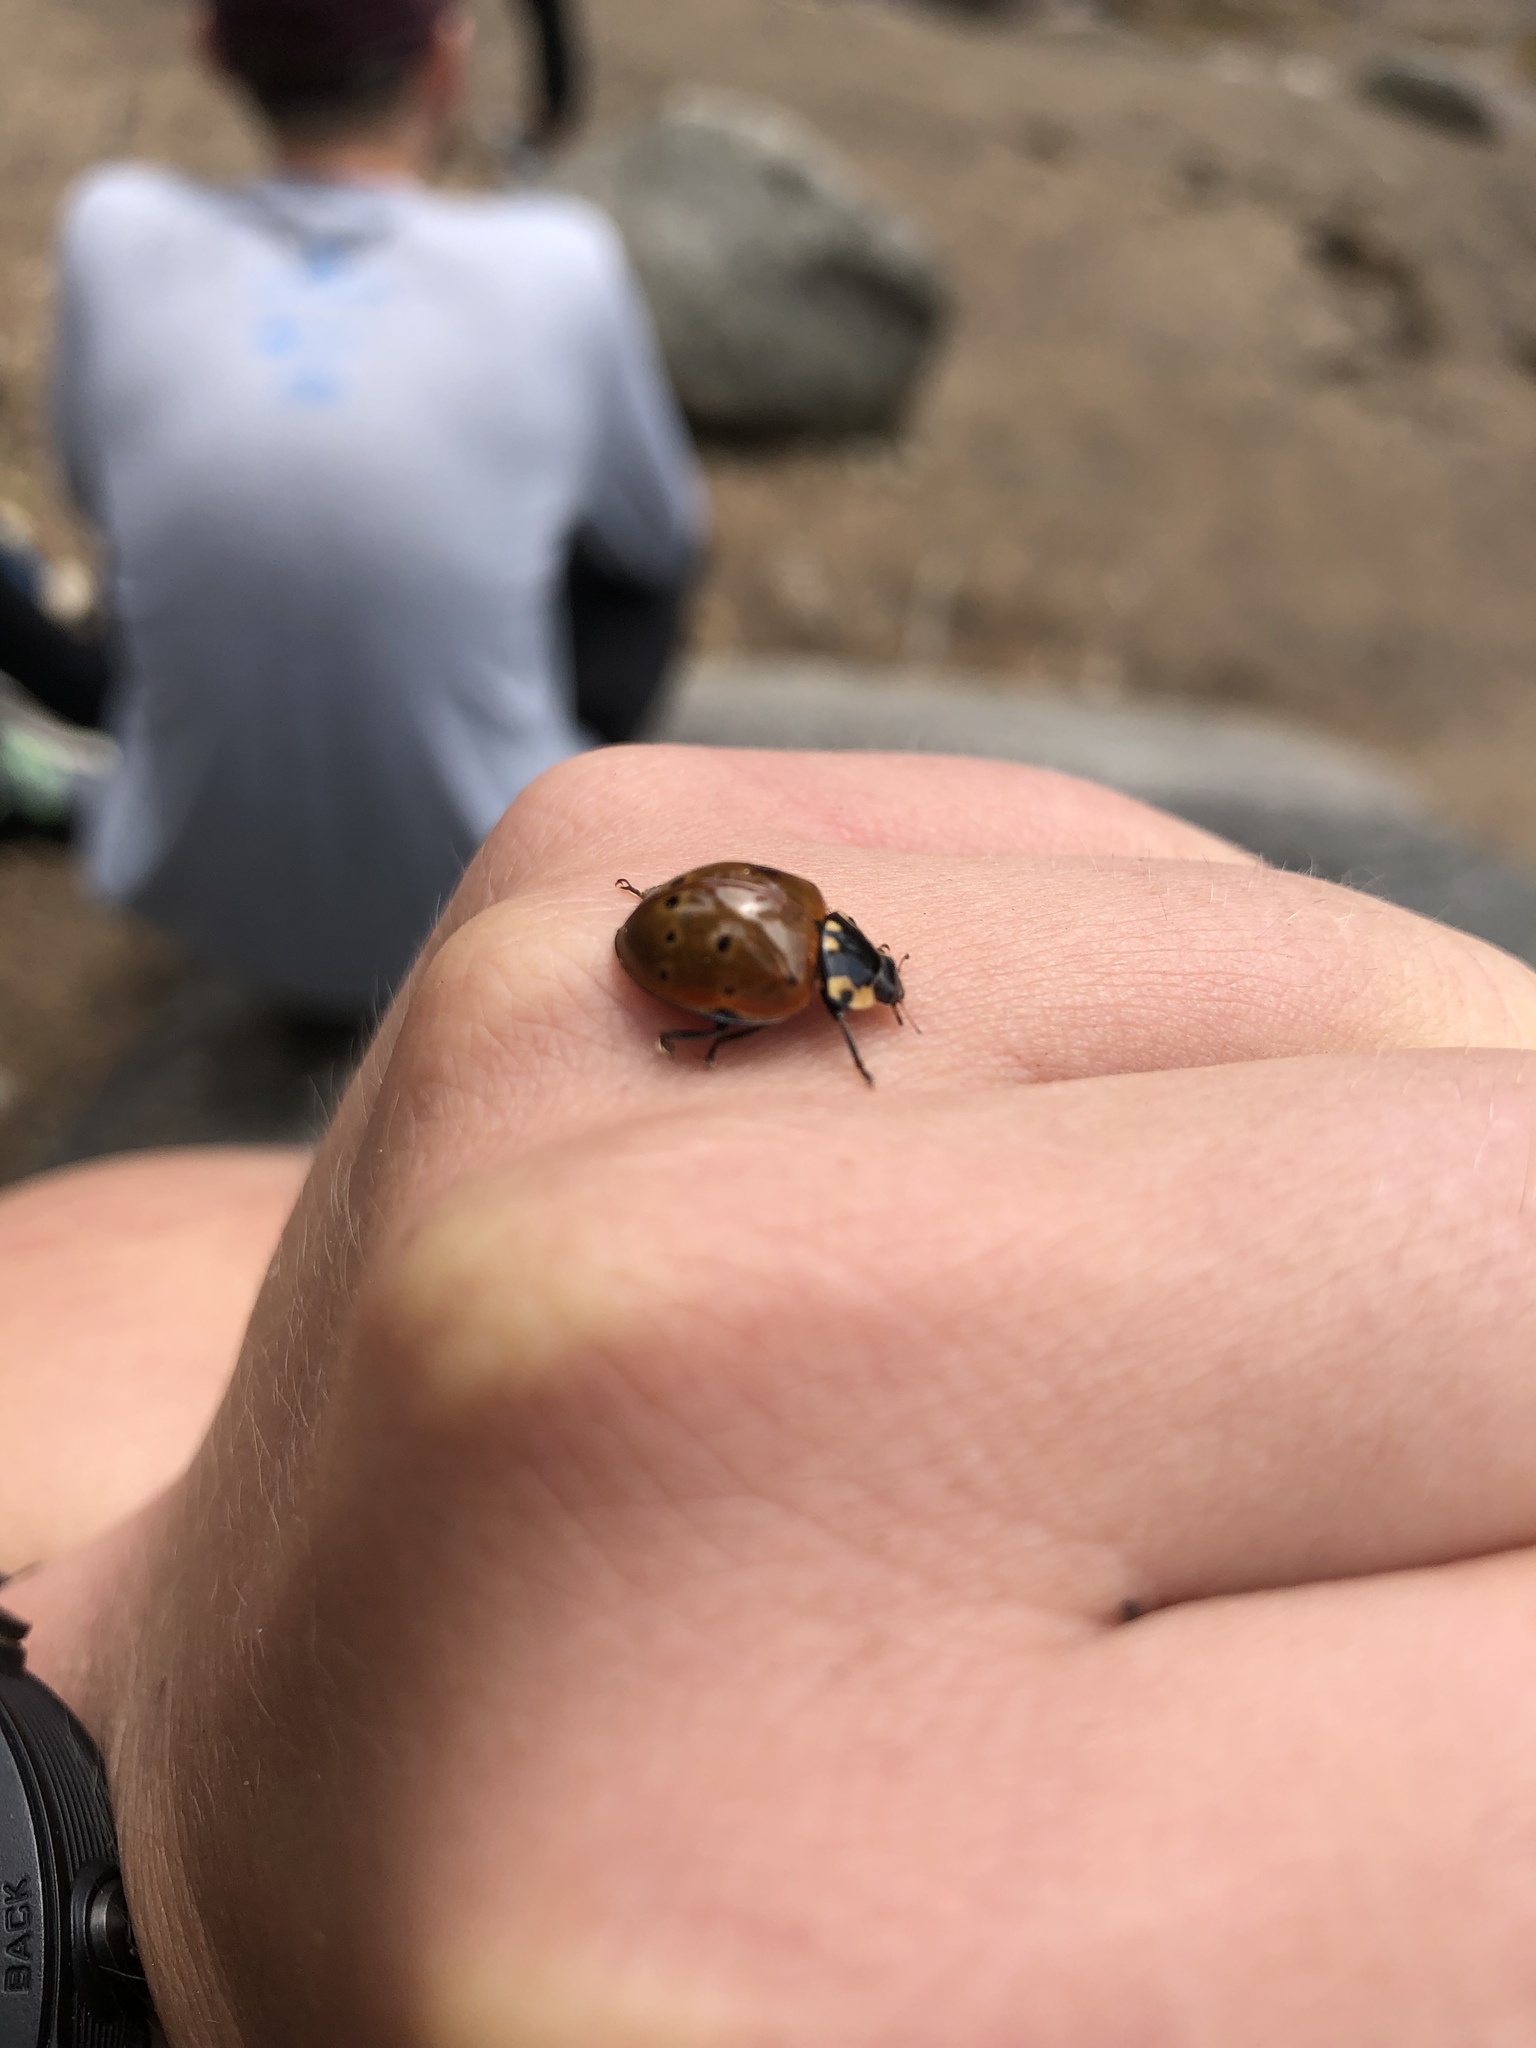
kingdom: Animalia
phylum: Arthropoda
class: Insecta
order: Coleoptera
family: Coccinellidae
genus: Anatis
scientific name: Anatis rathvoni
